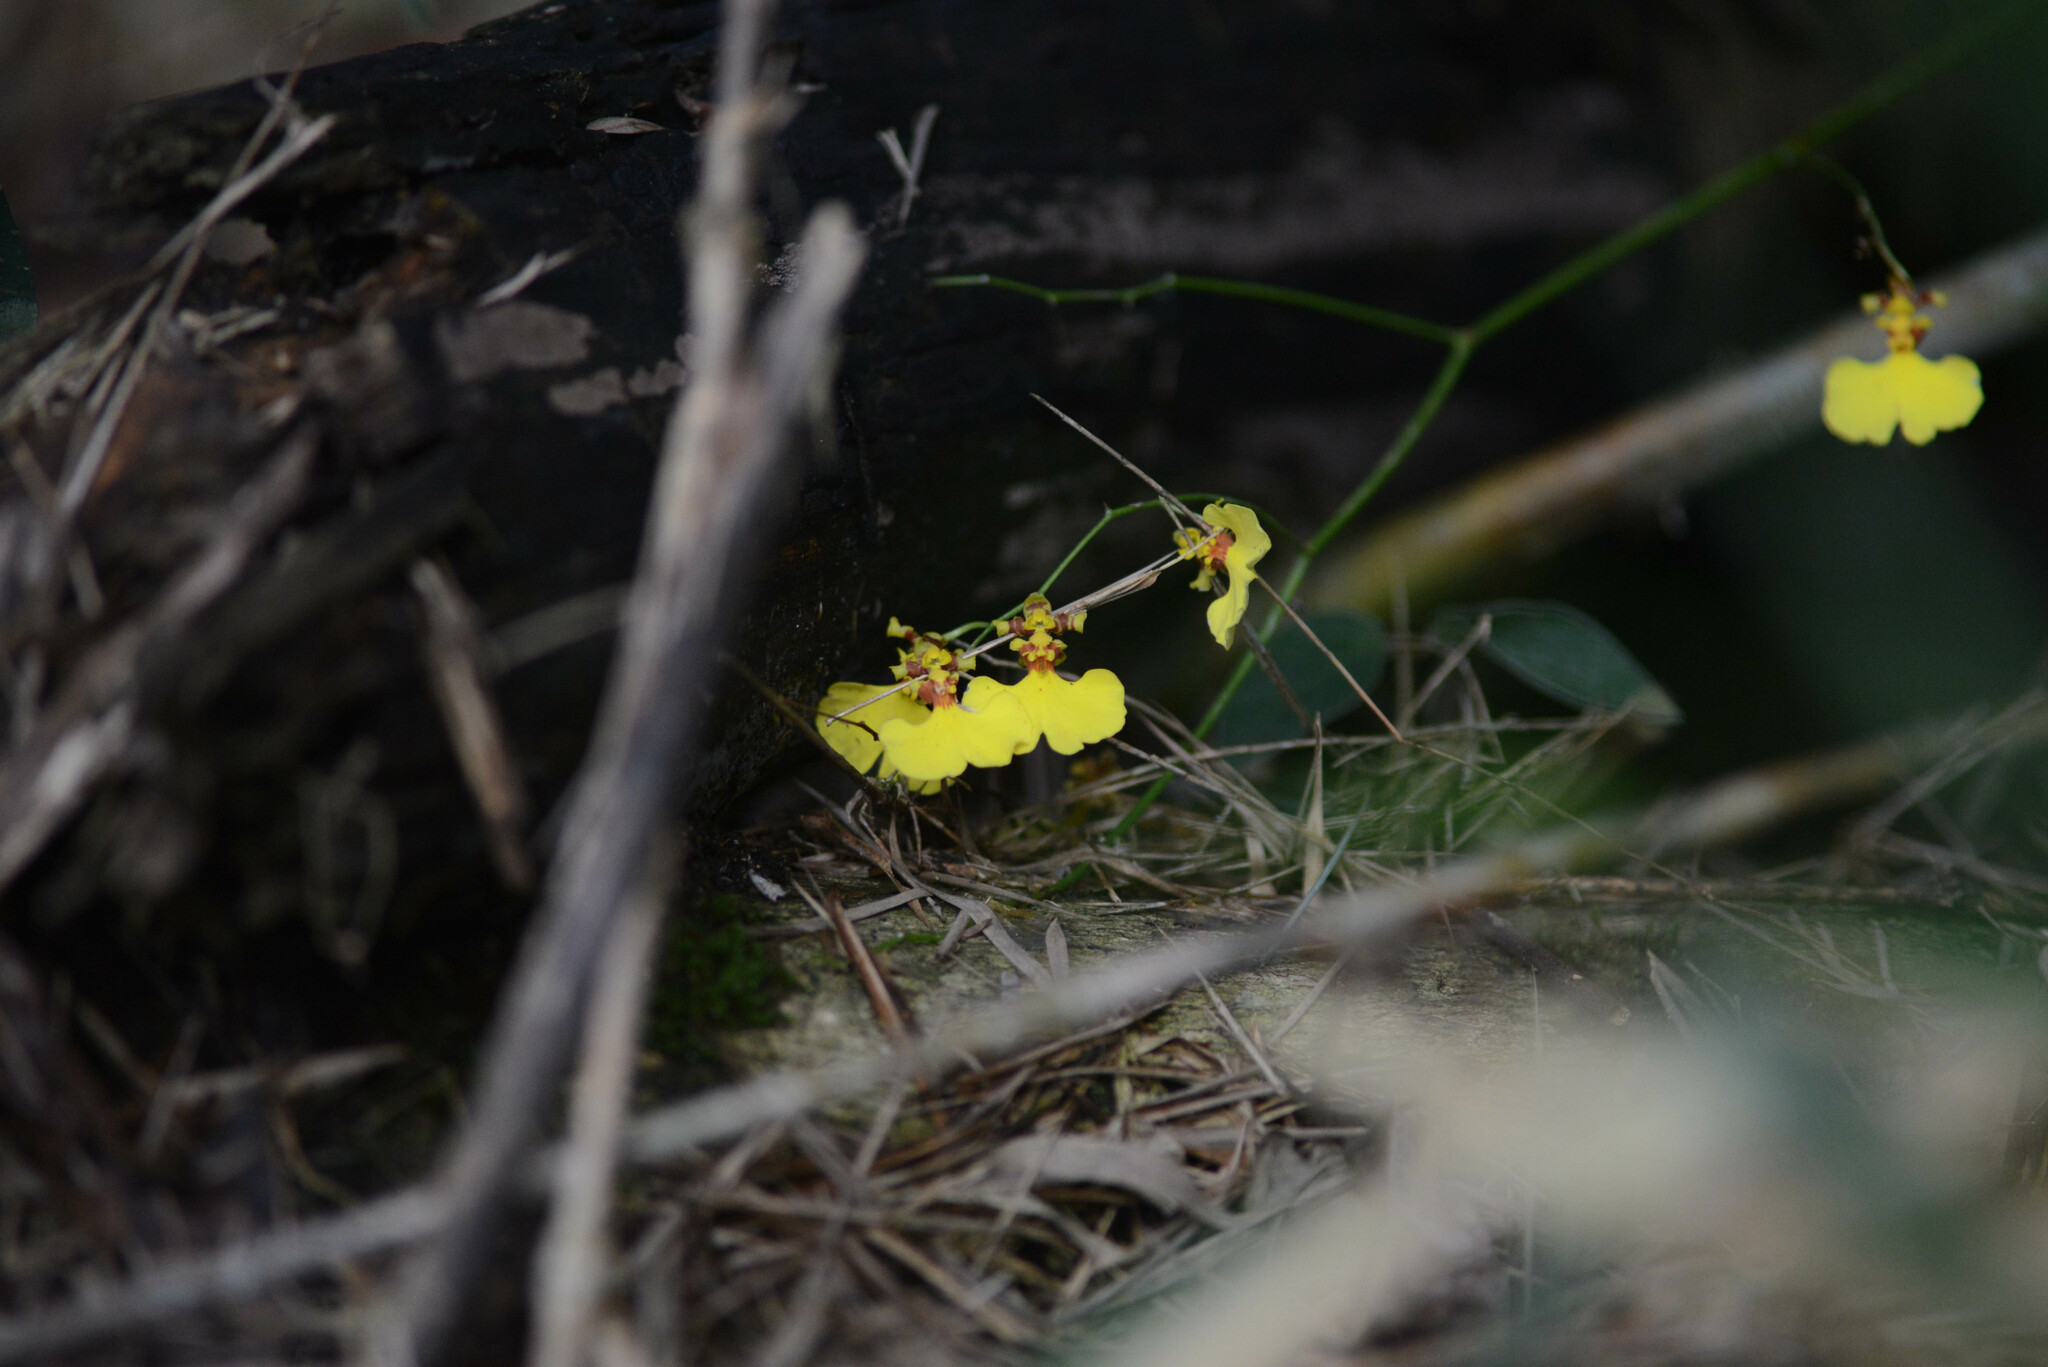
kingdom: Plantae
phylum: Tracheophyta
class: Liliopsida
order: Asparagales
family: Orchidaceae
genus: Gomesa
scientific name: Gomesa flexuosa
